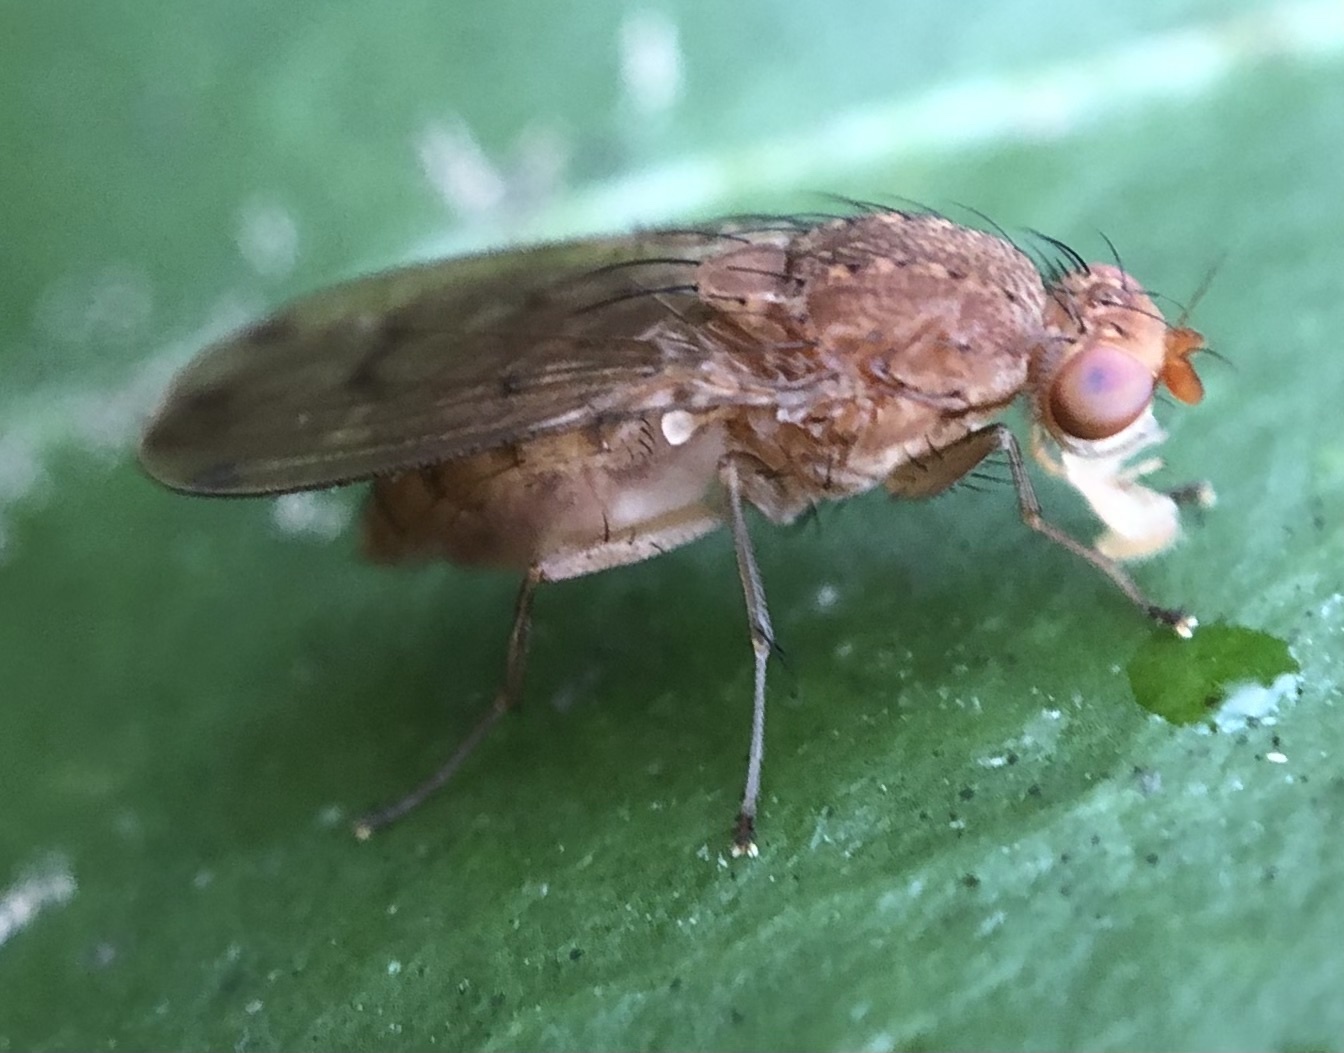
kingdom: Animalia
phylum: Arthropoda
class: Insecta
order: Diptera
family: Heleomyzidae
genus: Suillia
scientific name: Suillia plumata
